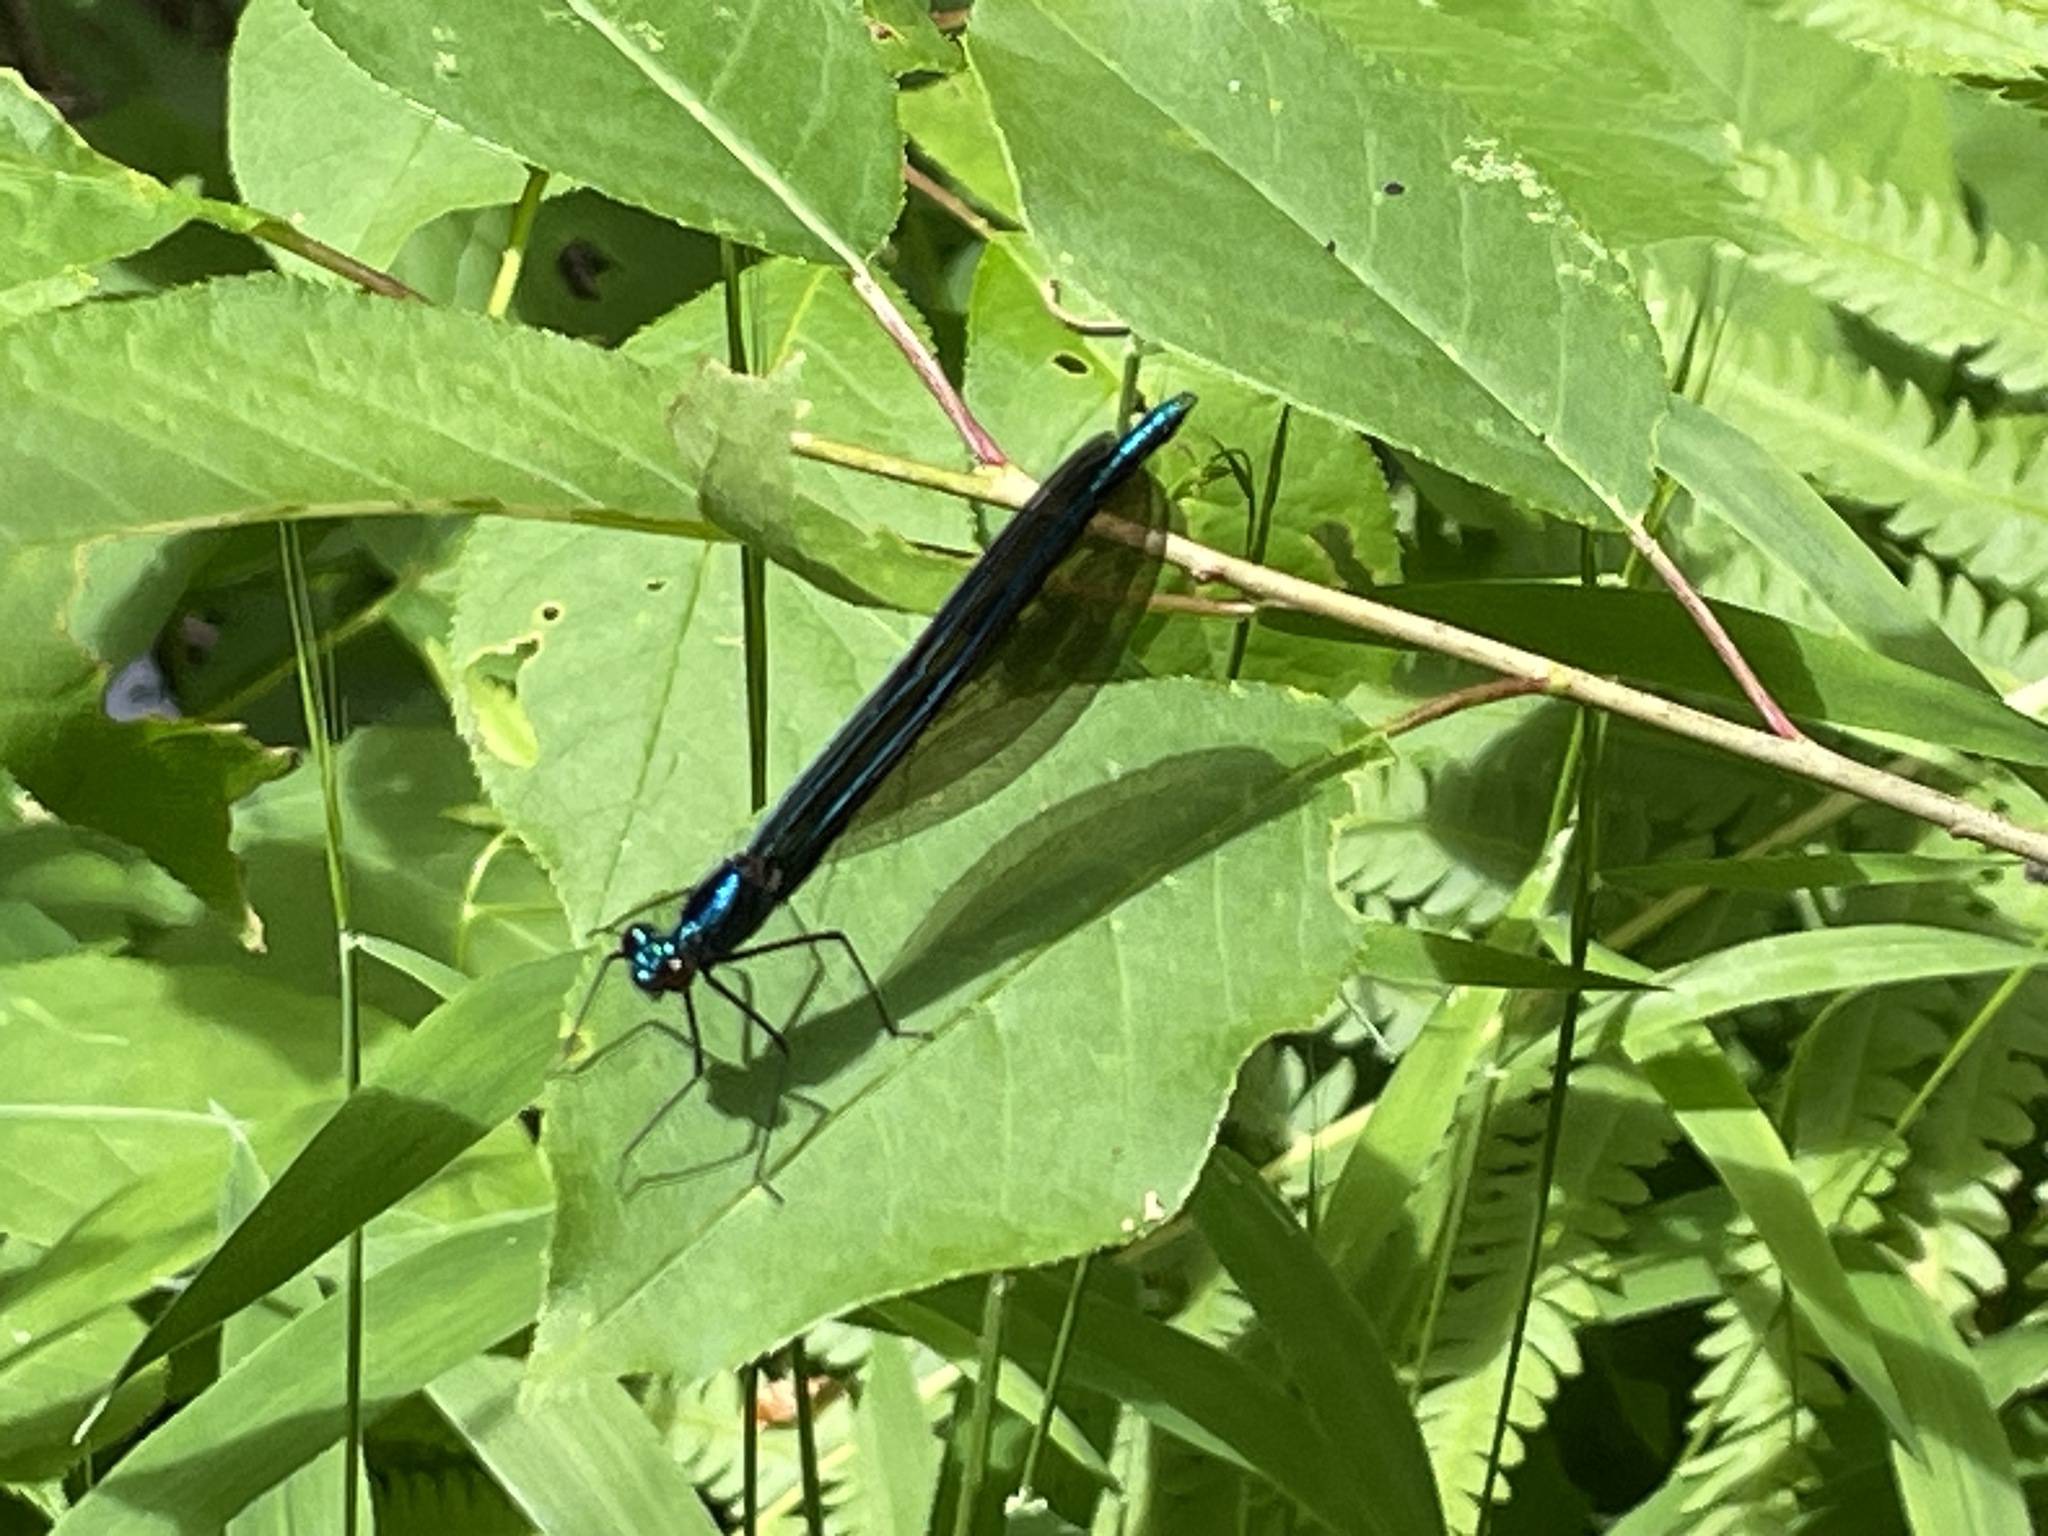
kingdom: Animalia
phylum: Arthropoda
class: Insecta
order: Odonata
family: Calopterygidae
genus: Calopteryx
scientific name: Calopteryx maculata
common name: Ebony jewelwing
